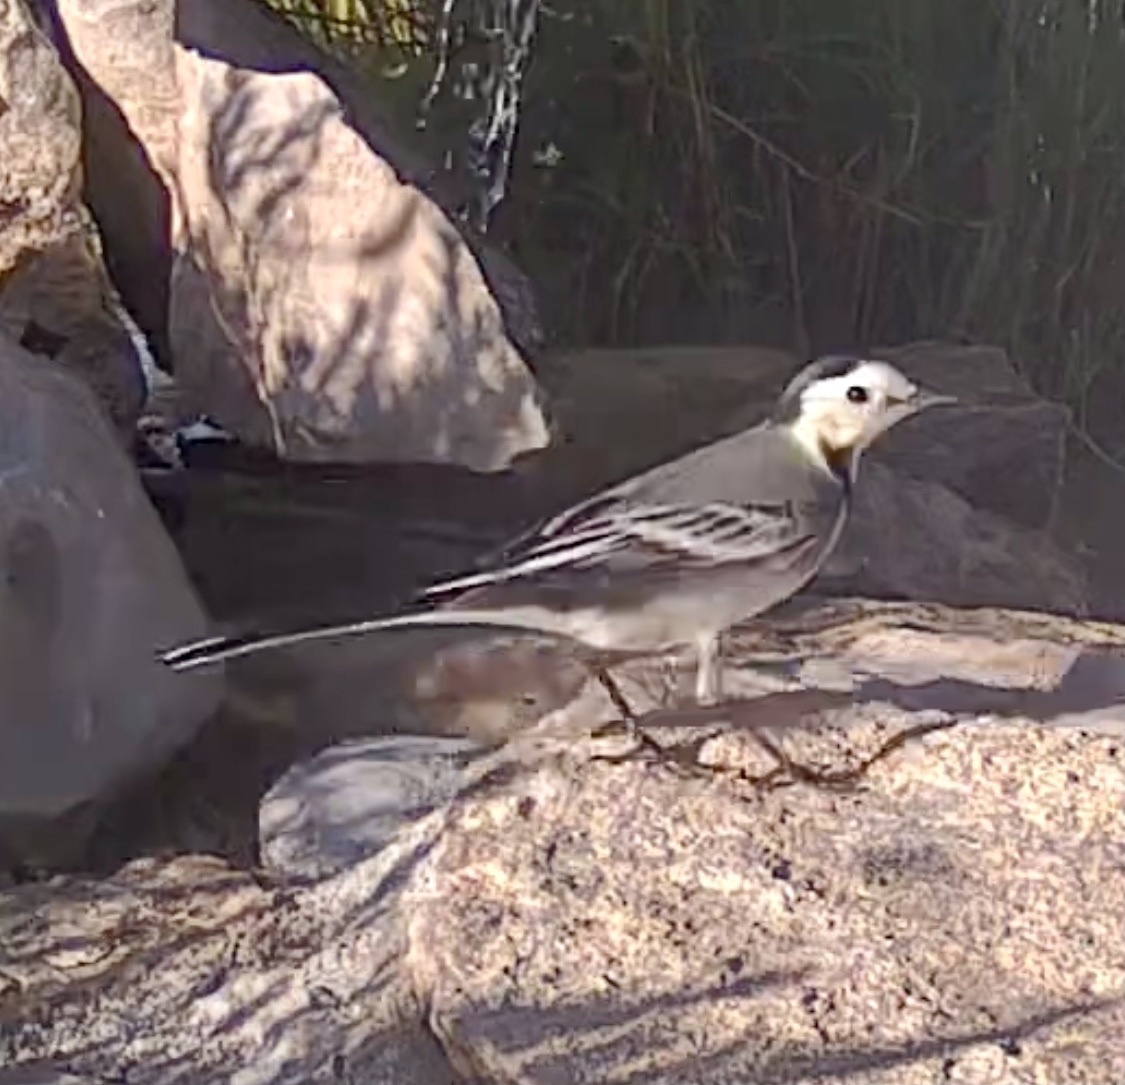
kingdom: Animalia
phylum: Chordata
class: Aves
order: Passeriformes
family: Motacillidae
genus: Motacilla
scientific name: Motacilla alba
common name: White wagtail
